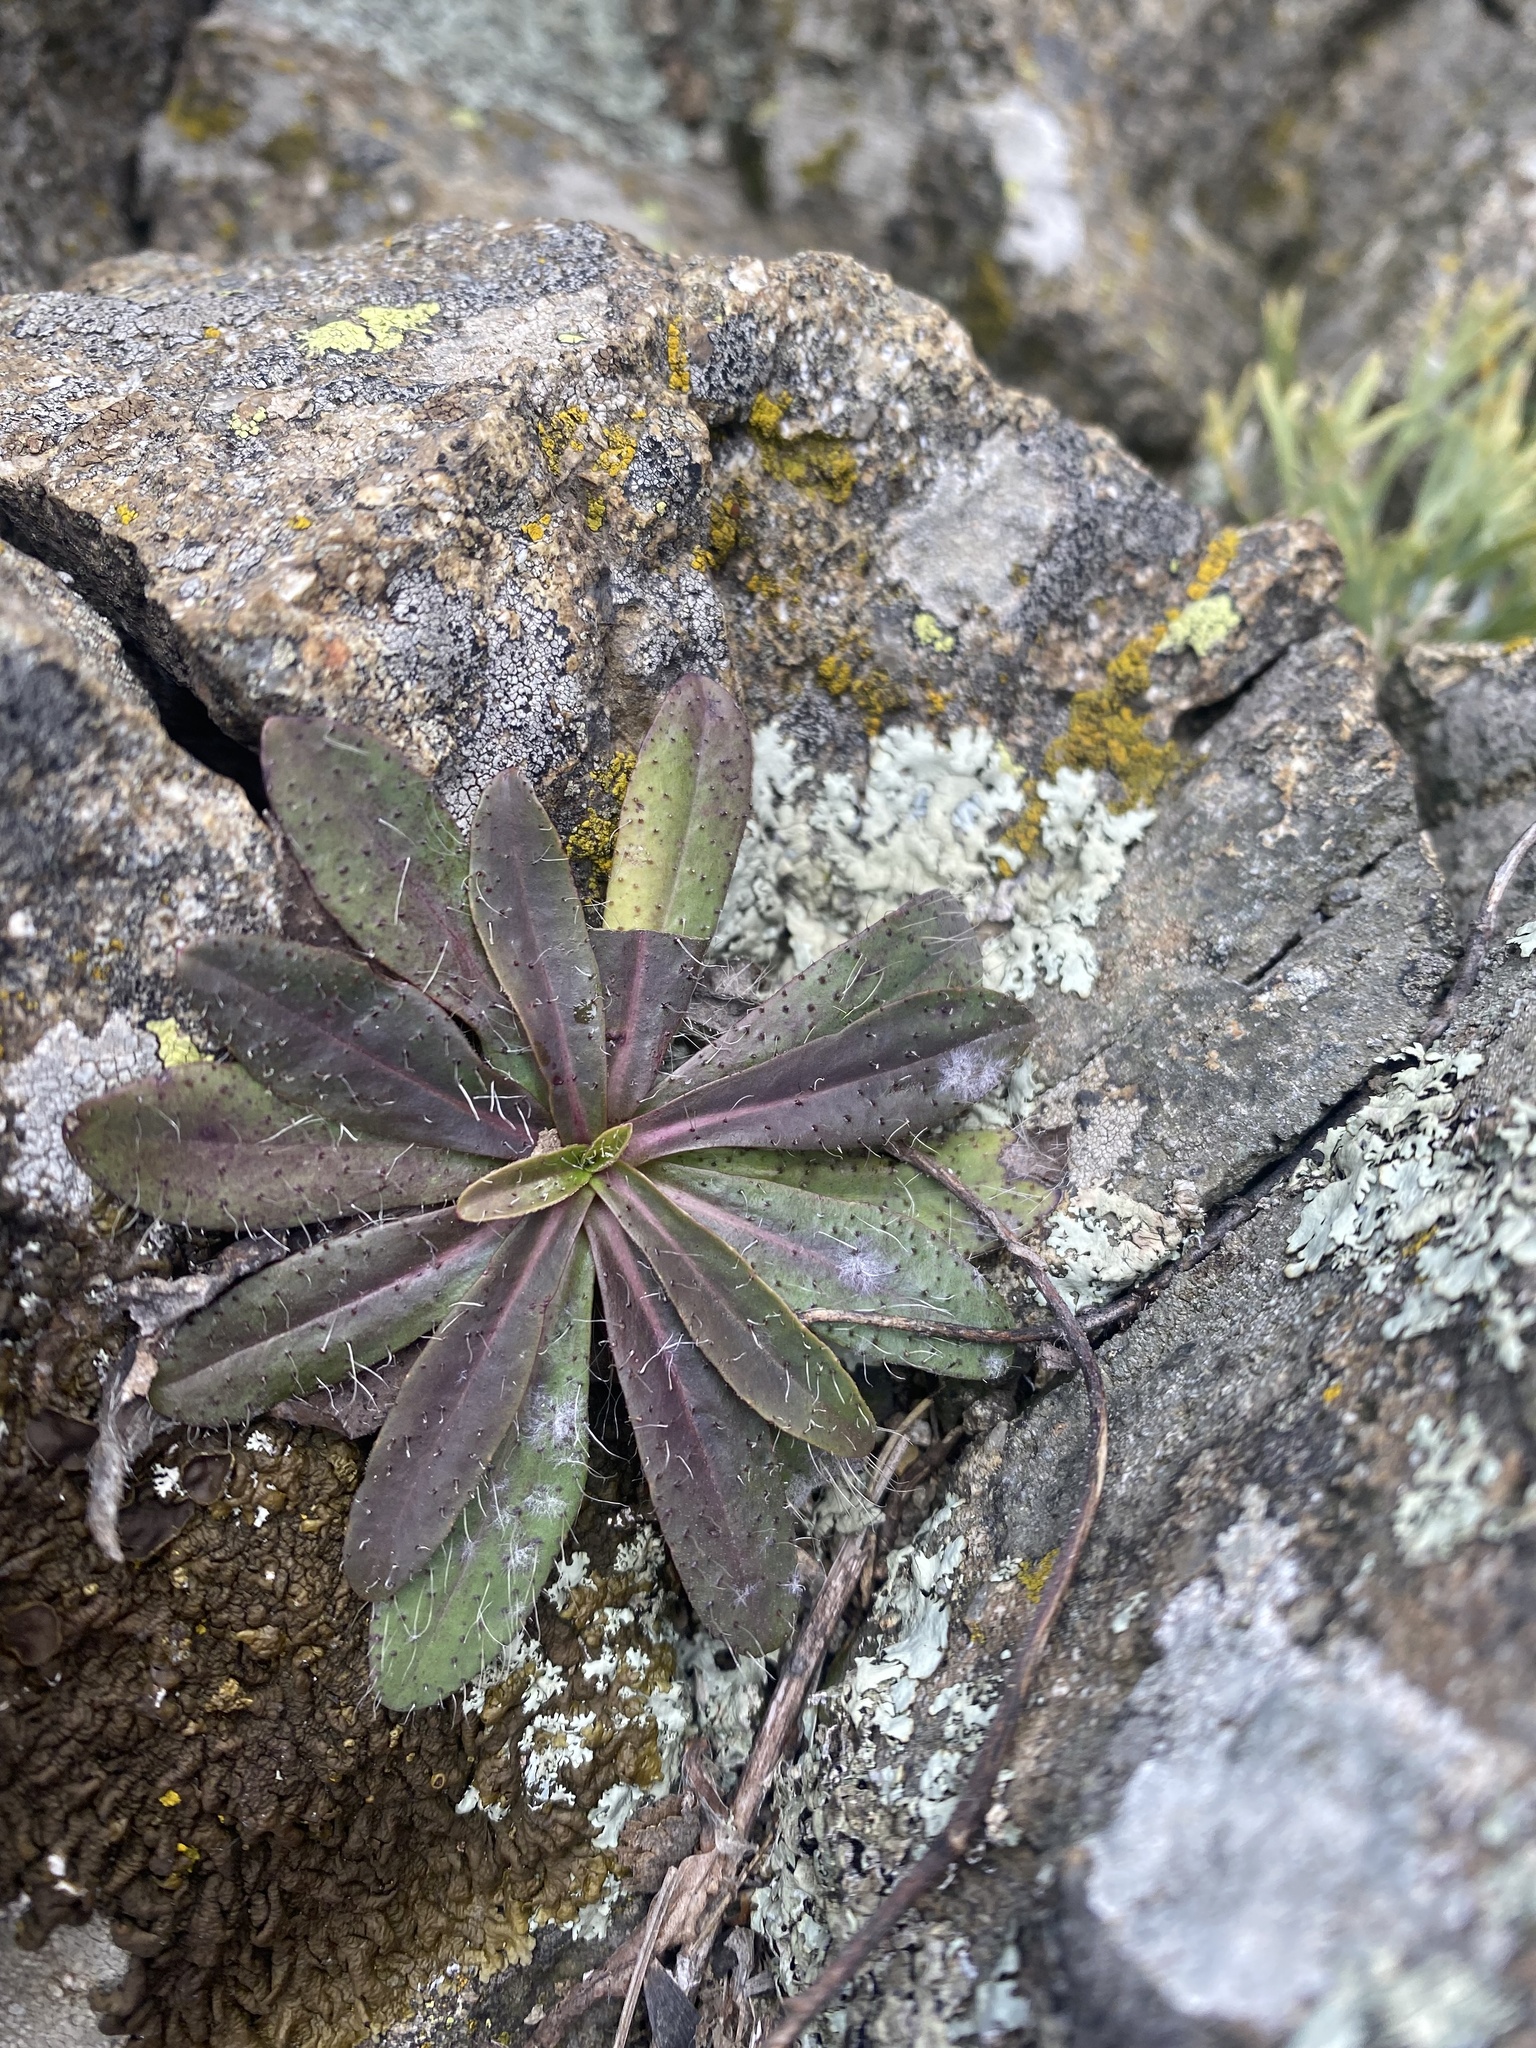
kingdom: Plantae
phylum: Tracheophyta
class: Magnoliopsida
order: Asterales
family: Asteraceae
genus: Pilosella
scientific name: Pilosella
